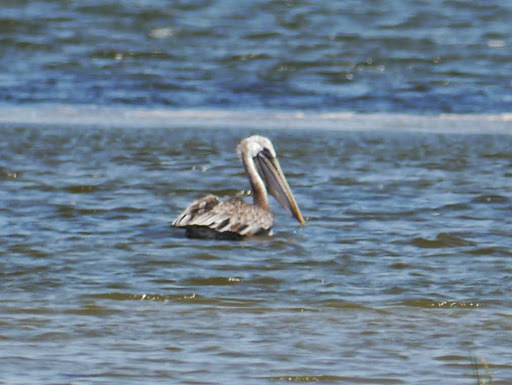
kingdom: Animalia
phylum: Chordata
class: Aves
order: Pelecaniformes
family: Pelecanidae
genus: Pelecanus
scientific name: Pelecanus occidentalis
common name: Brown pelican
